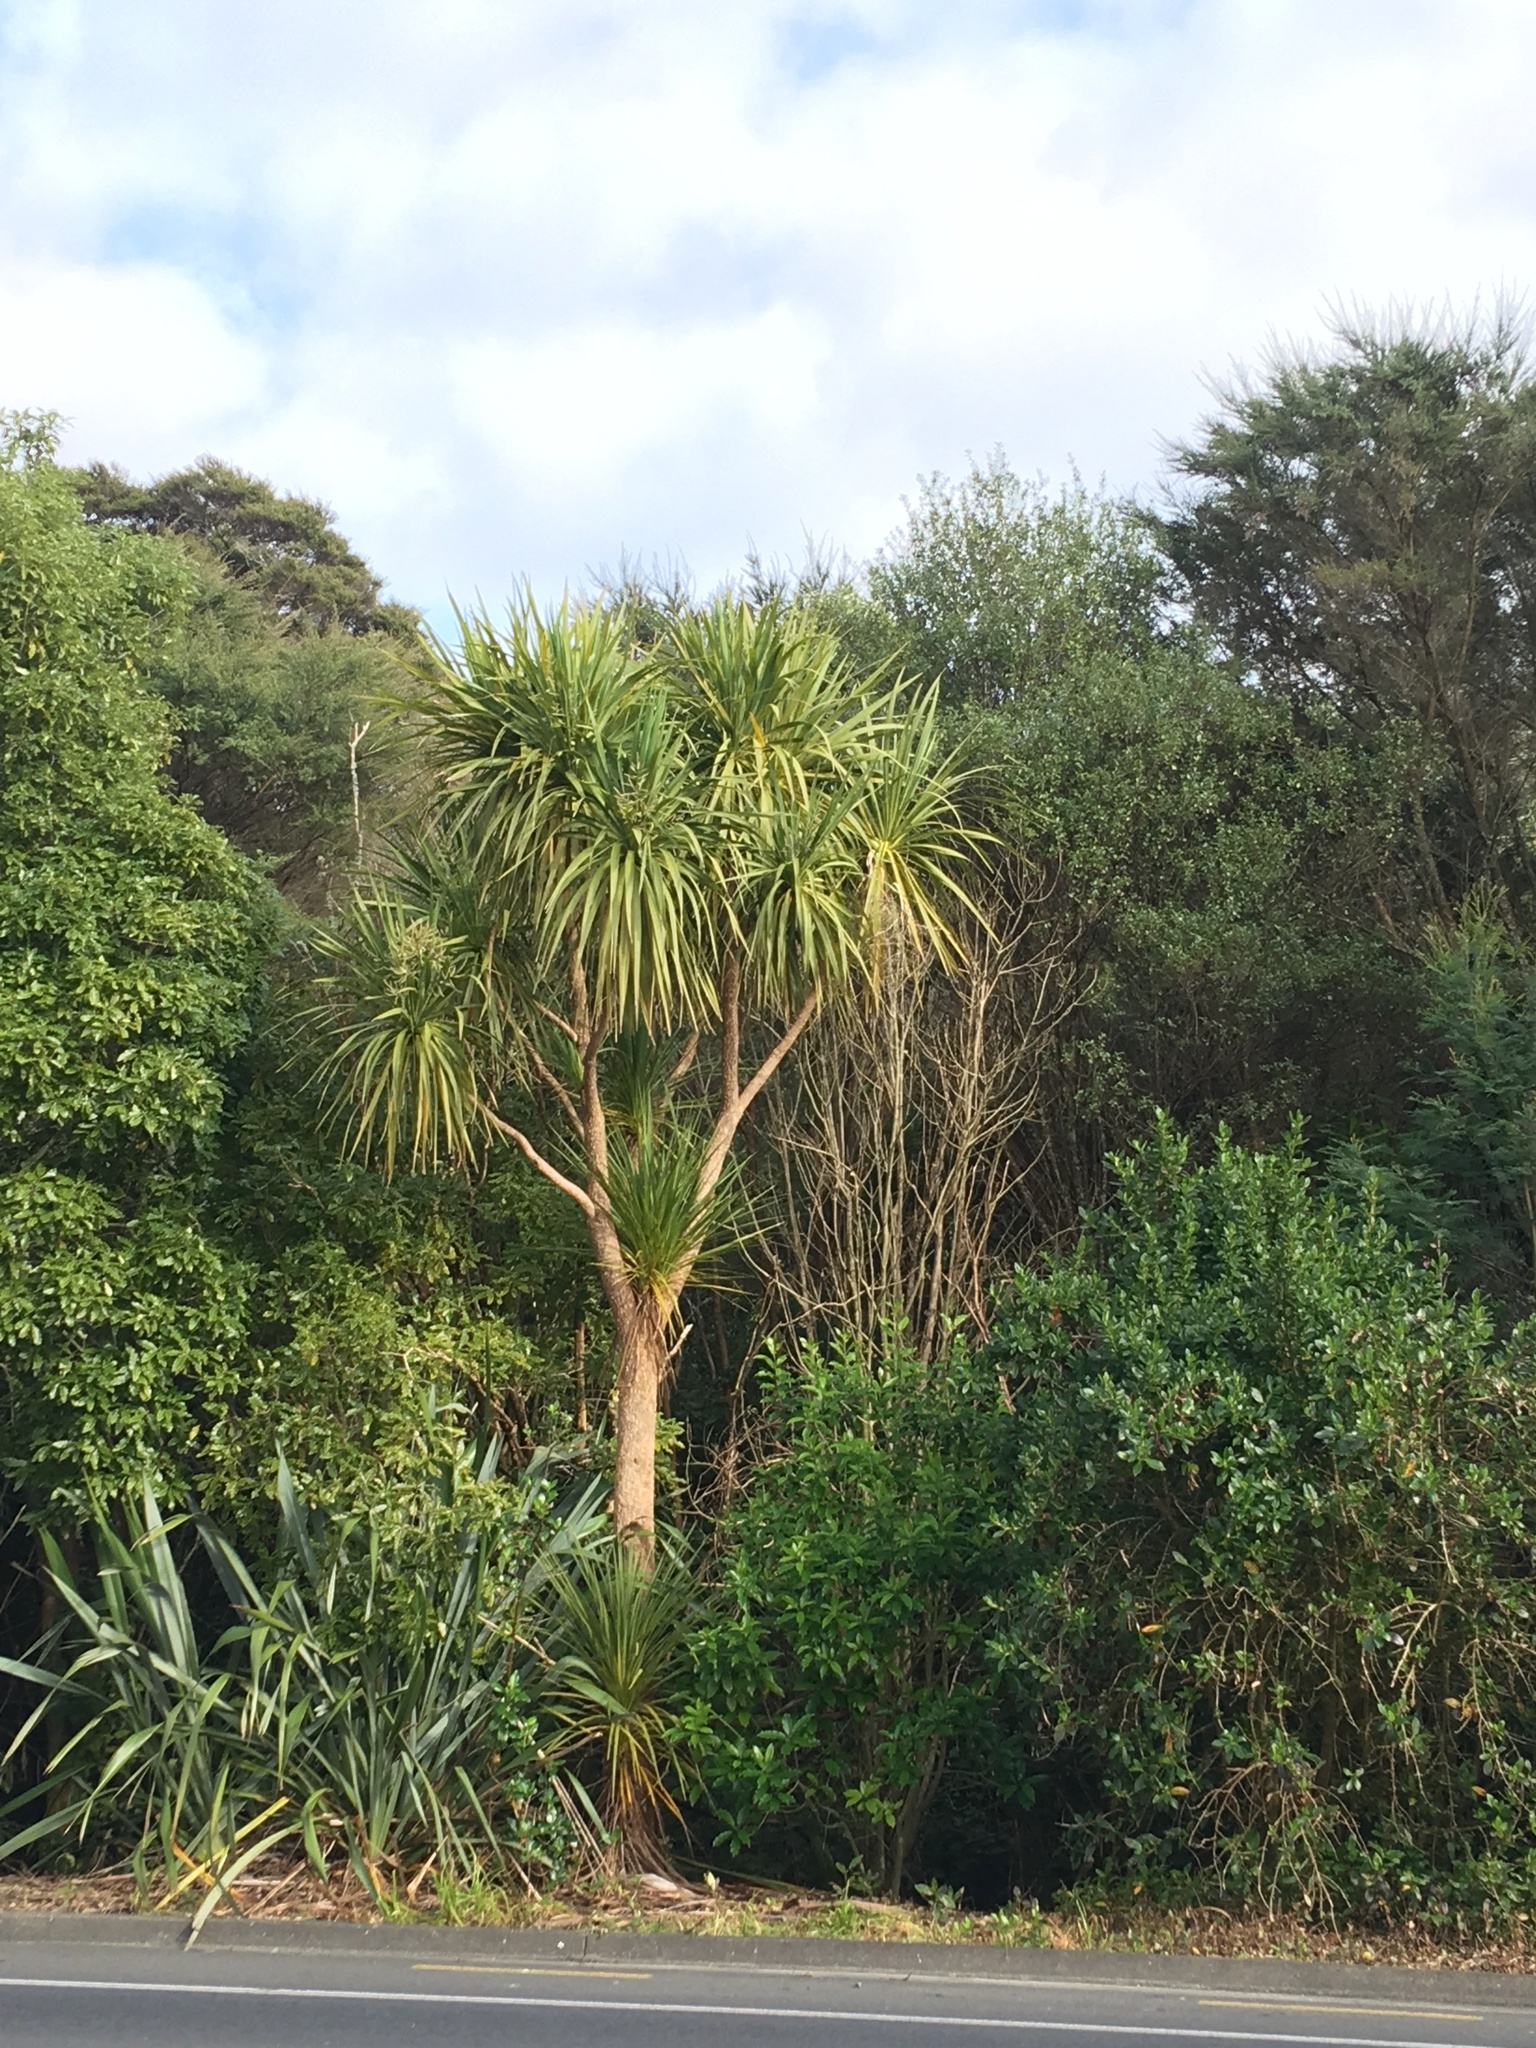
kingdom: Plantae
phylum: Tracheophyta
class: Liliopsida
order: Asparagales
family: Asparagaceae
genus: Cordyline
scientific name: Cordyline australis
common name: Cabbage-palm
